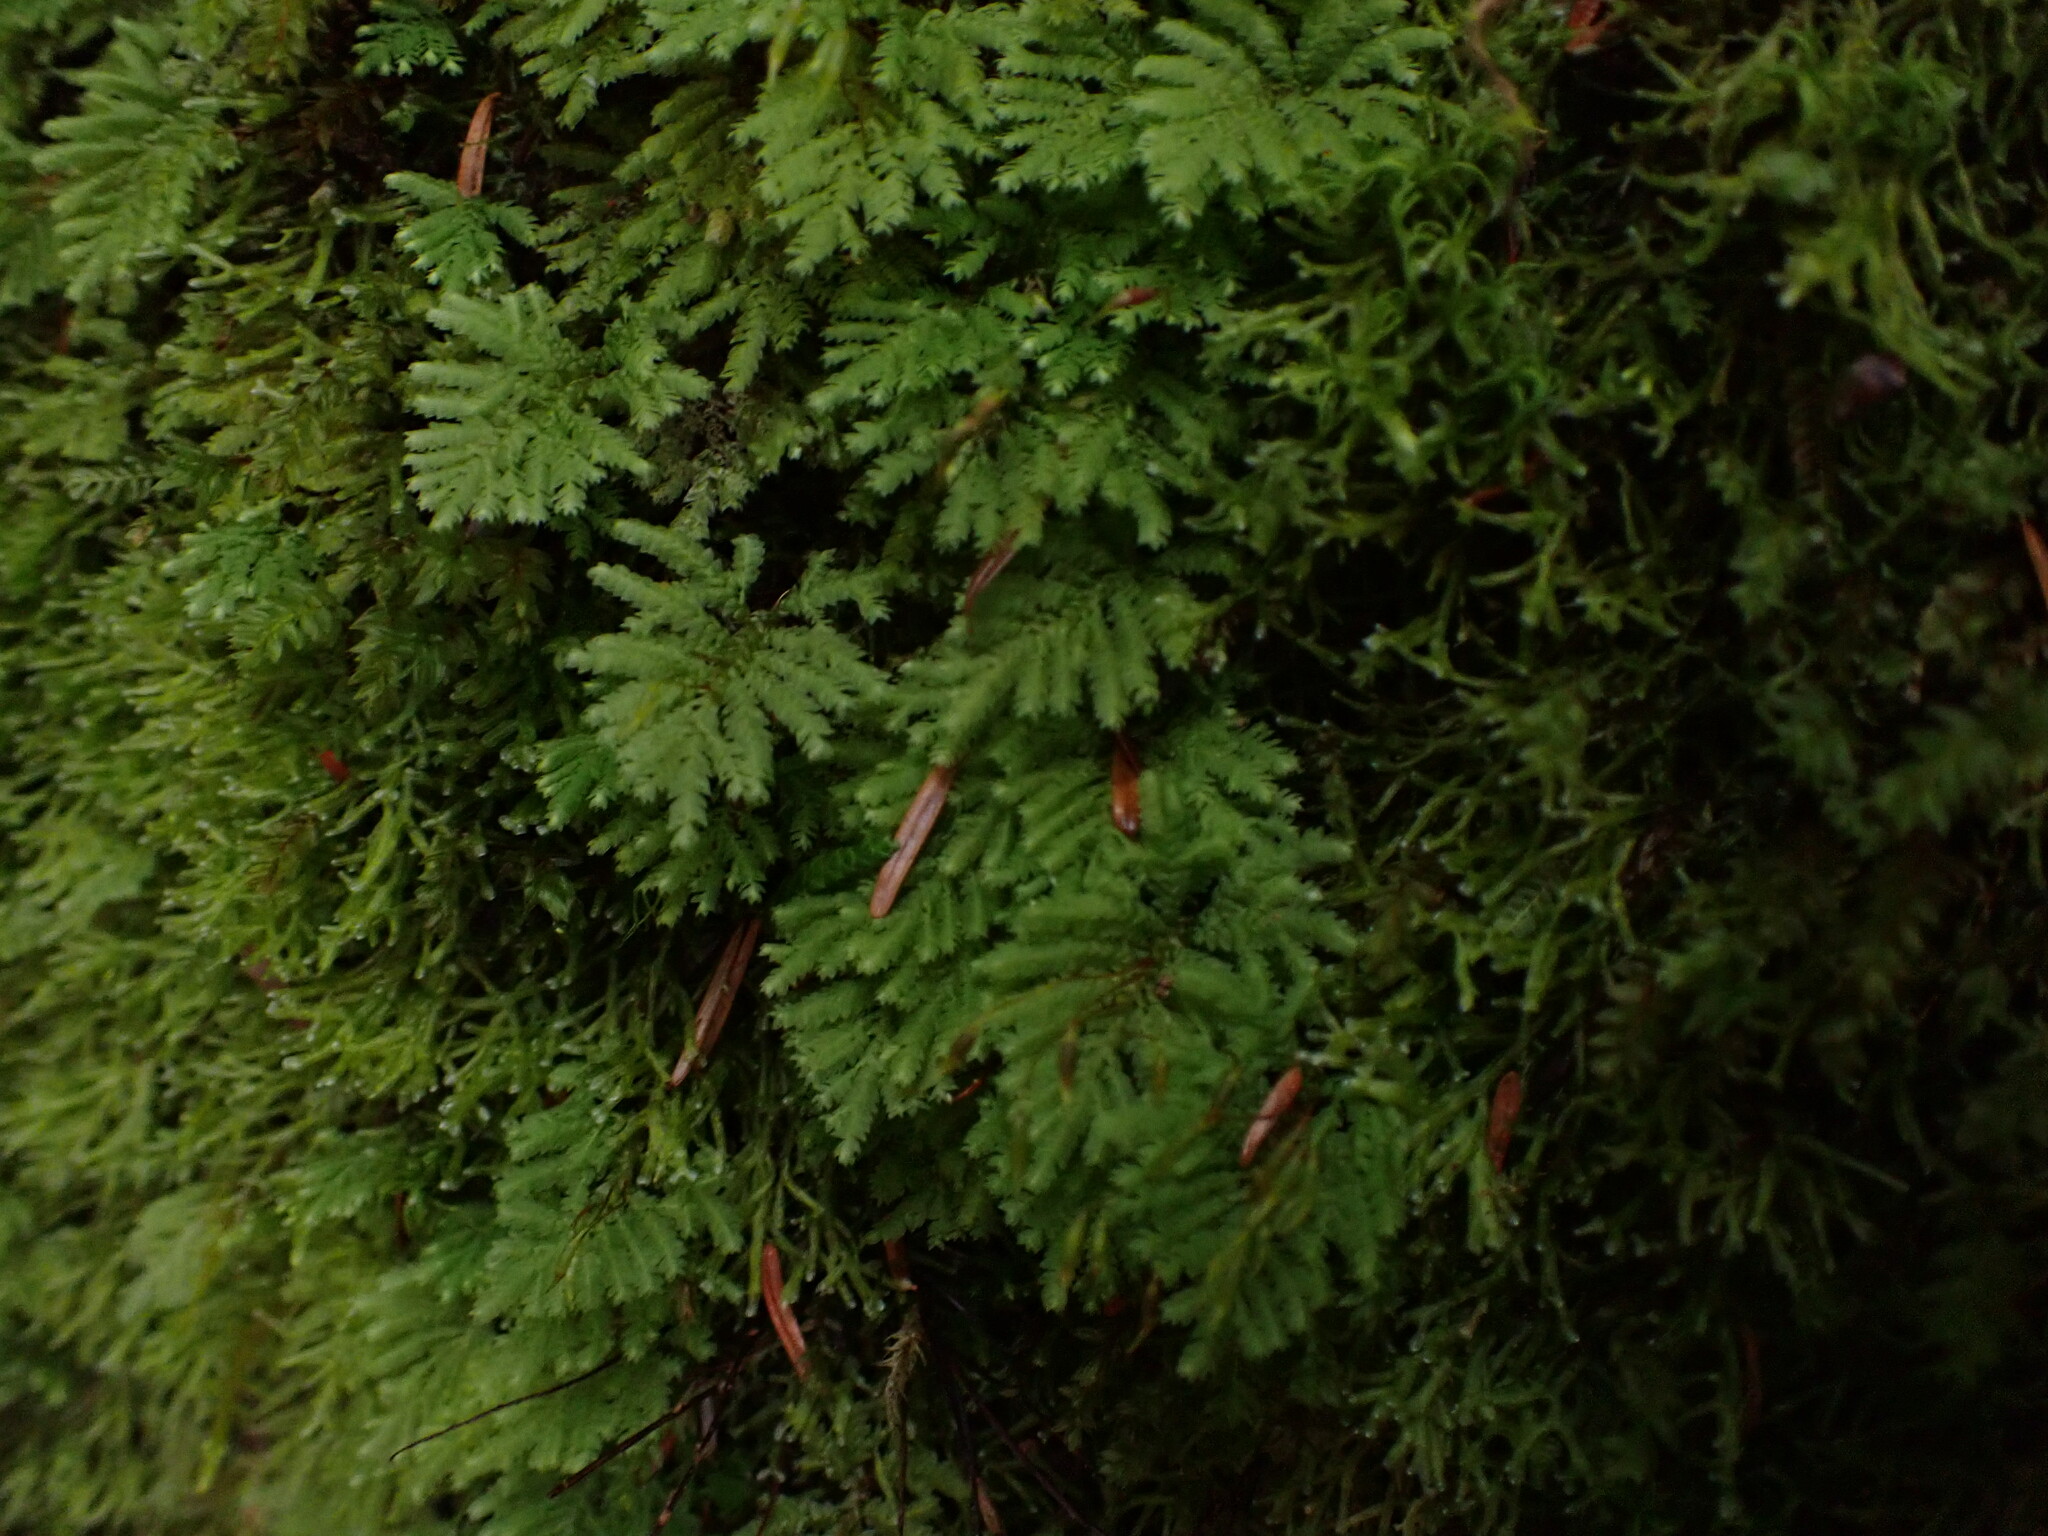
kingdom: Plantae
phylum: Bryophyta
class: Bryopsida
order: Hypopterygiales
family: Hypopterygiaceae
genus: Hypopterygium
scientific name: Hypopterygium flavolimbatum
